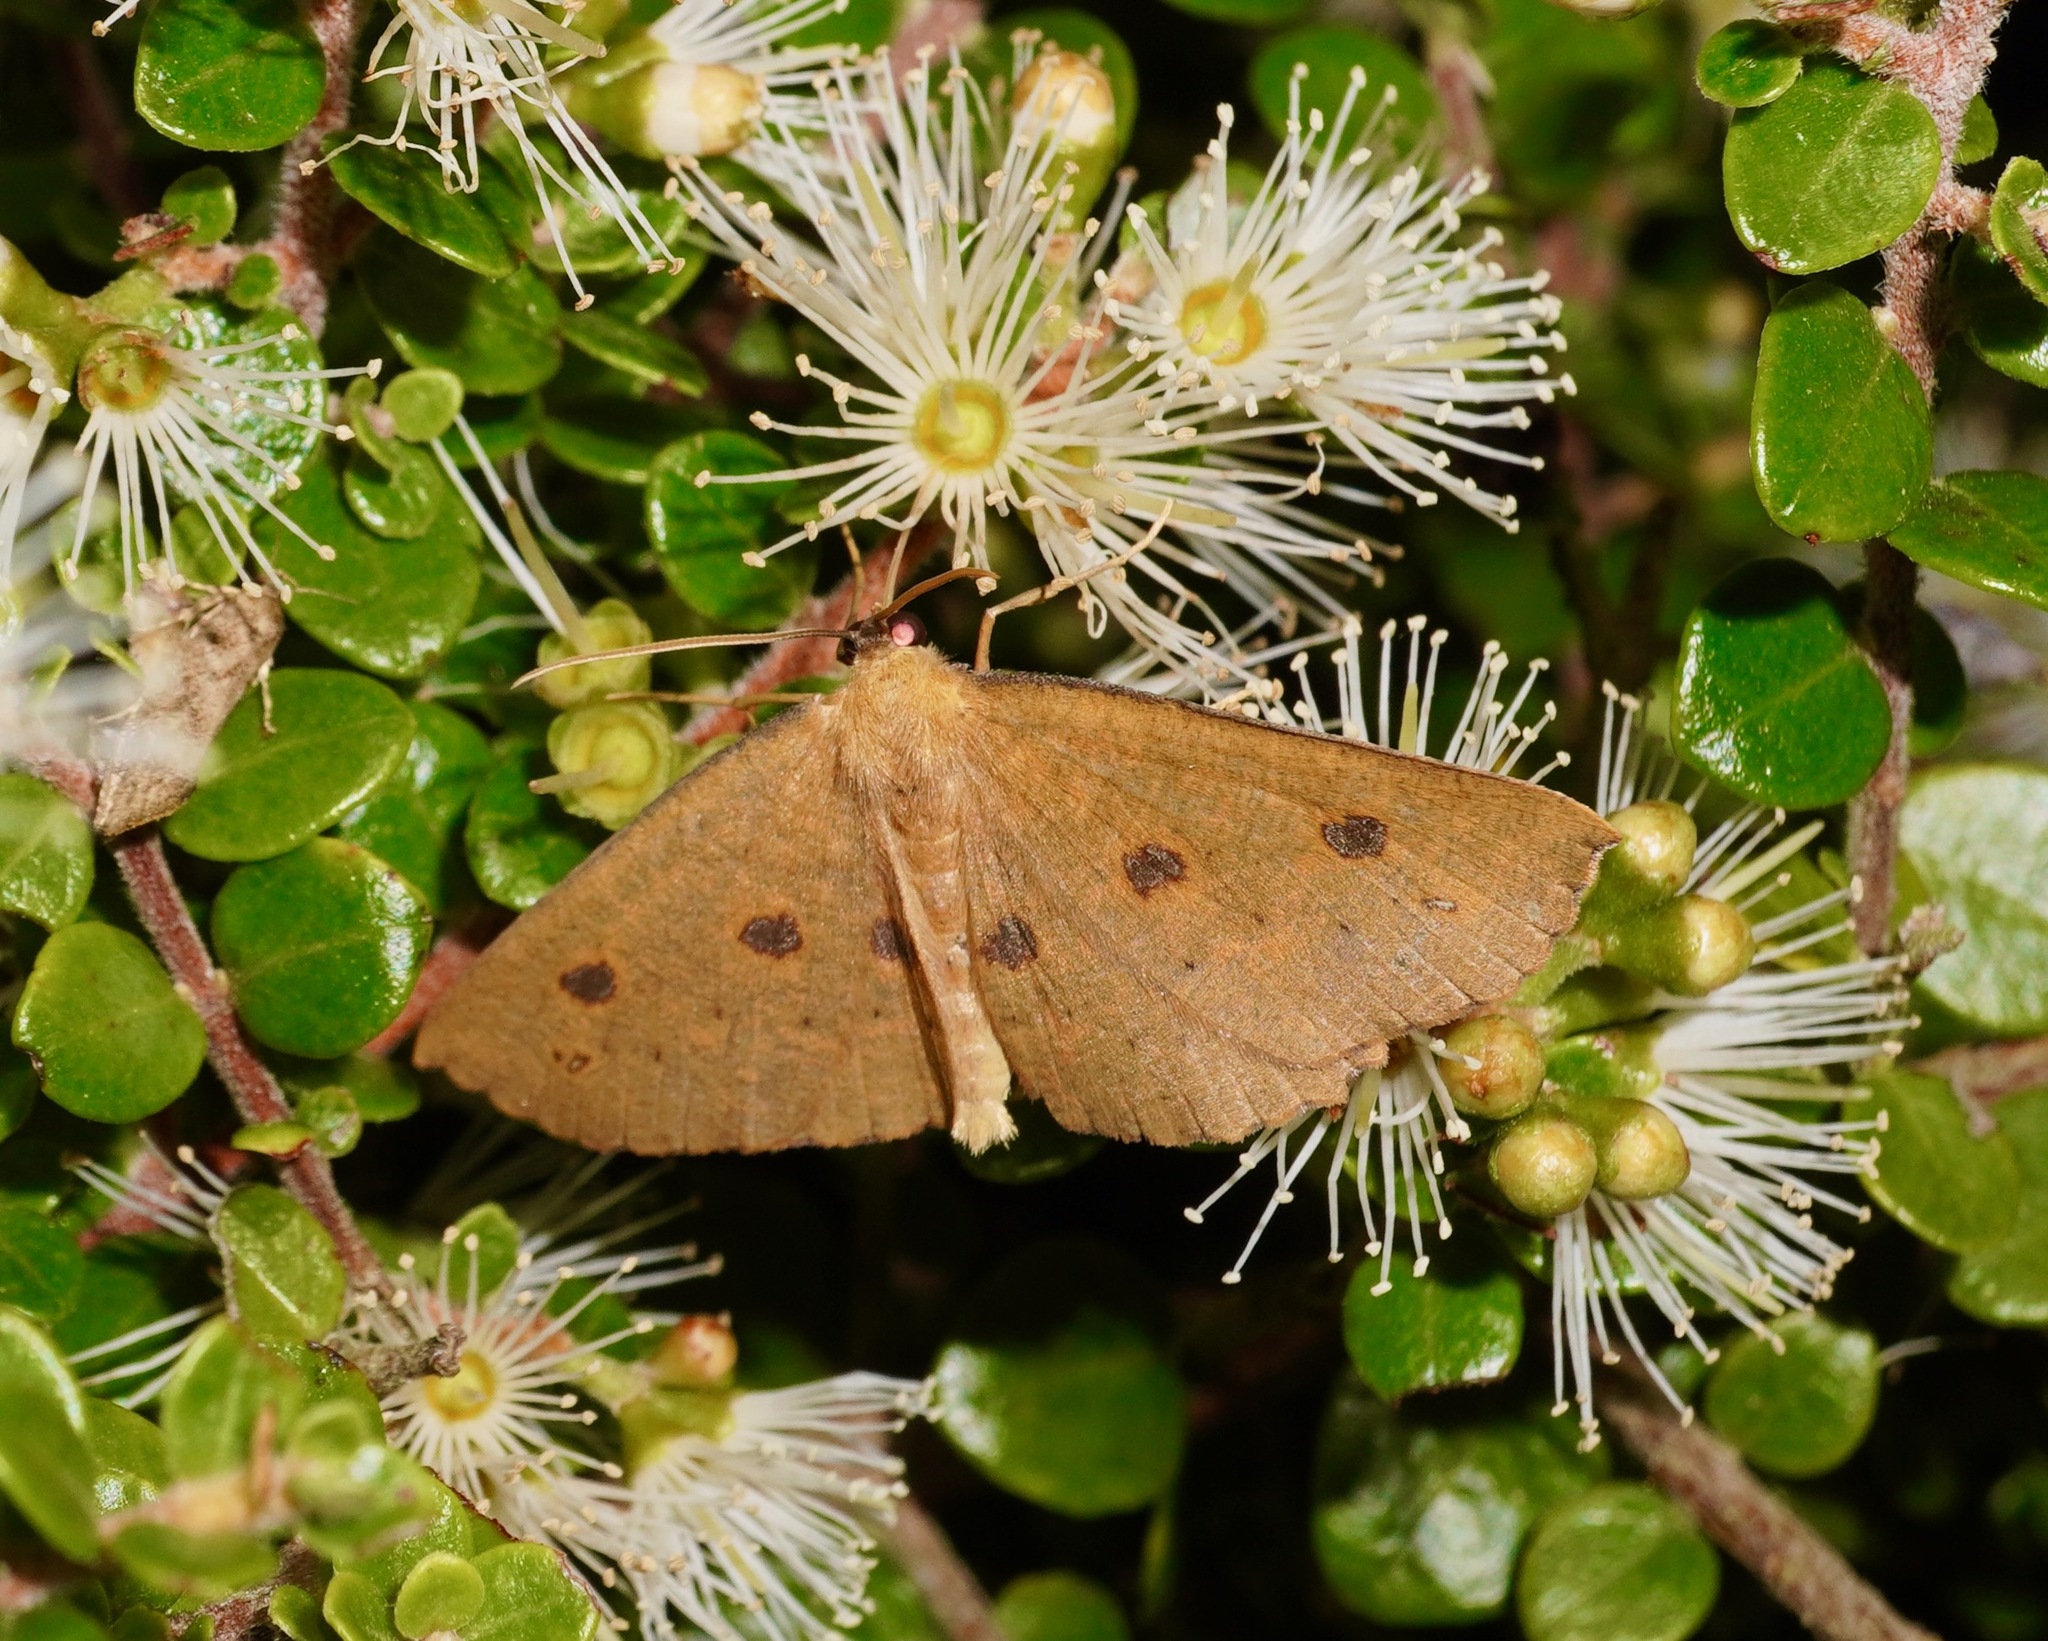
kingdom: Animalia
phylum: Arthropoda
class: Insecta
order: Lepidoptera
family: Geometridae
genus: Xyridacma
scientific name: Xyridacma alectoraria
